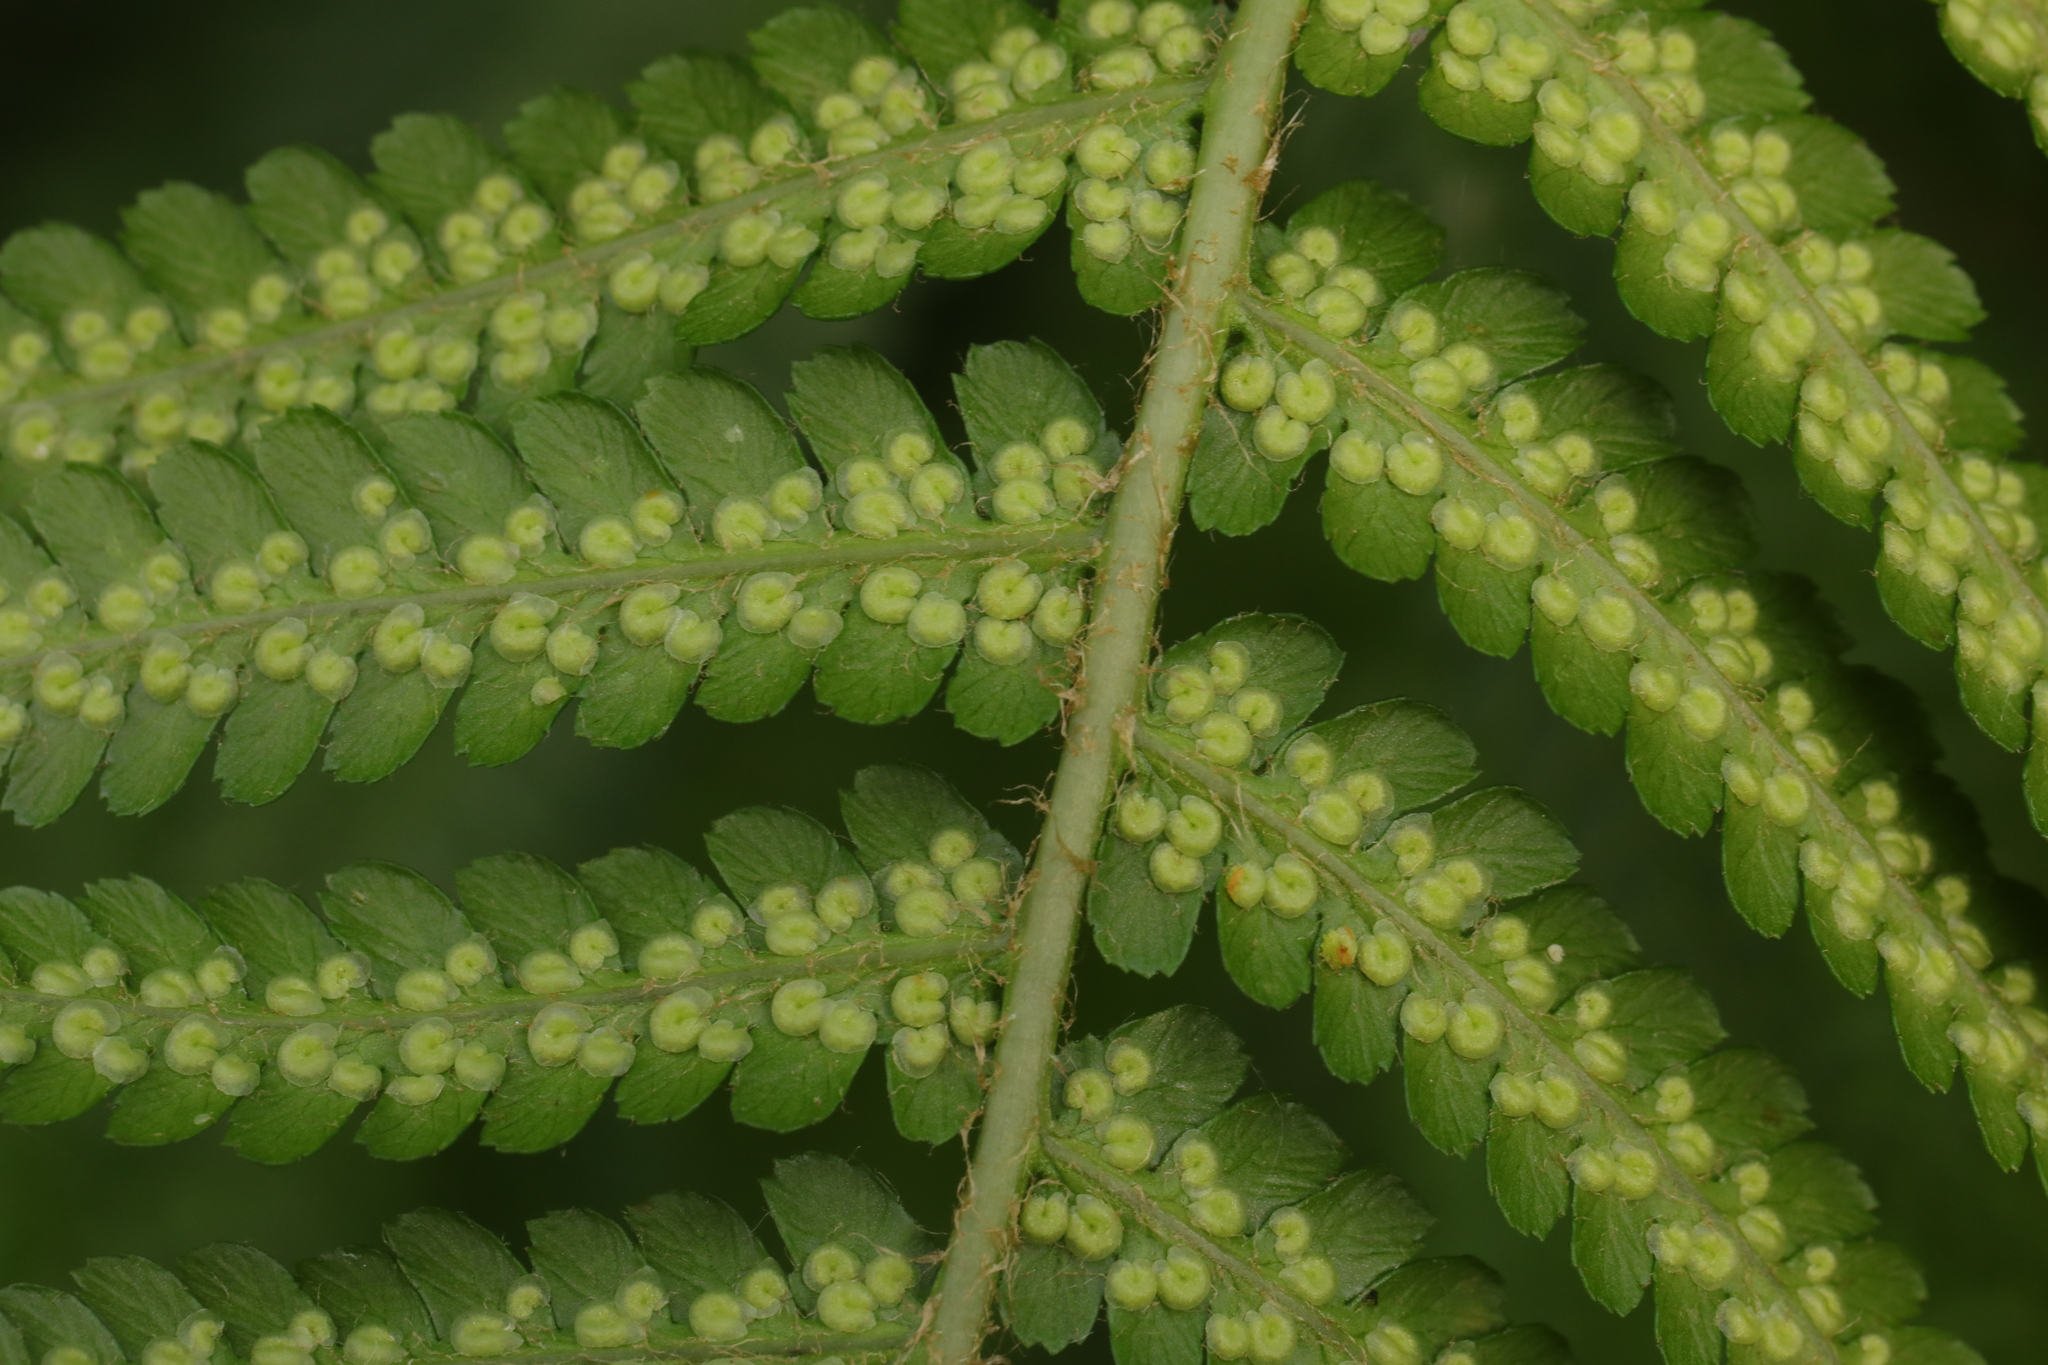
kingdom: Plantae
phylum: Tracheophyta
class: Polypodiopsida
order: Polypodiales
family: Dryopteridaceae
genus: Dryopteris
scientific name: Dryopteris filix-mas
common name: Male fern
